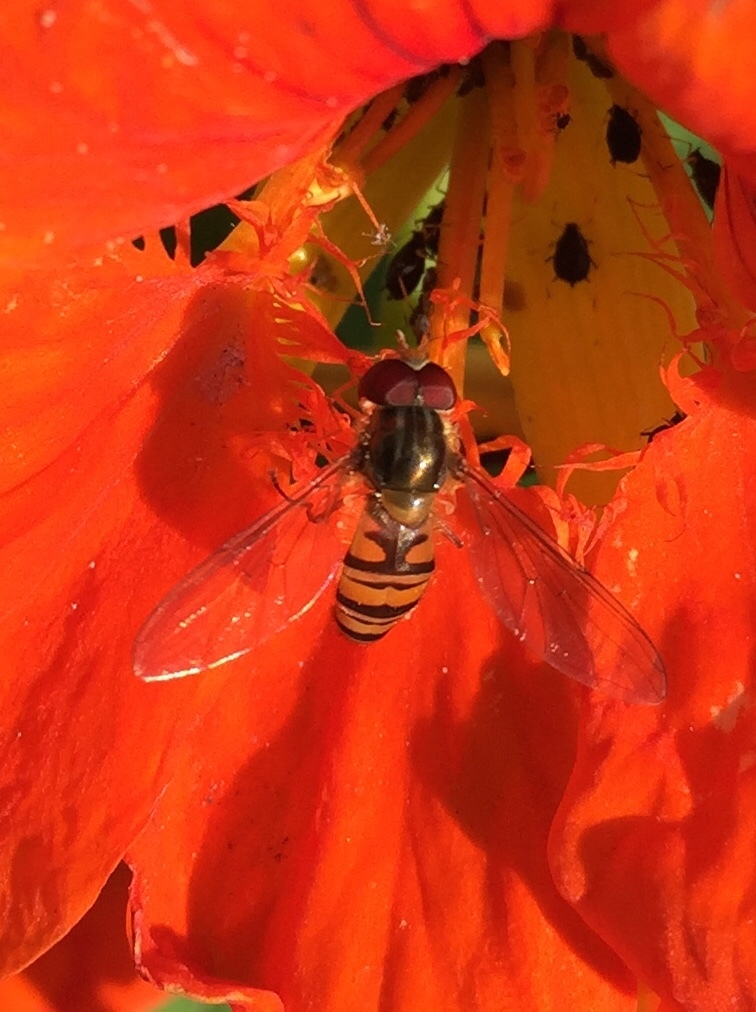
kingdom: Animalia
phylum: Arthropoda
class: Insecta
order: Diptera
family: Syrphidae
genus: Episyrphus
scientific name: Episyrphus balteatus
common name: Marmalade hoverfly
